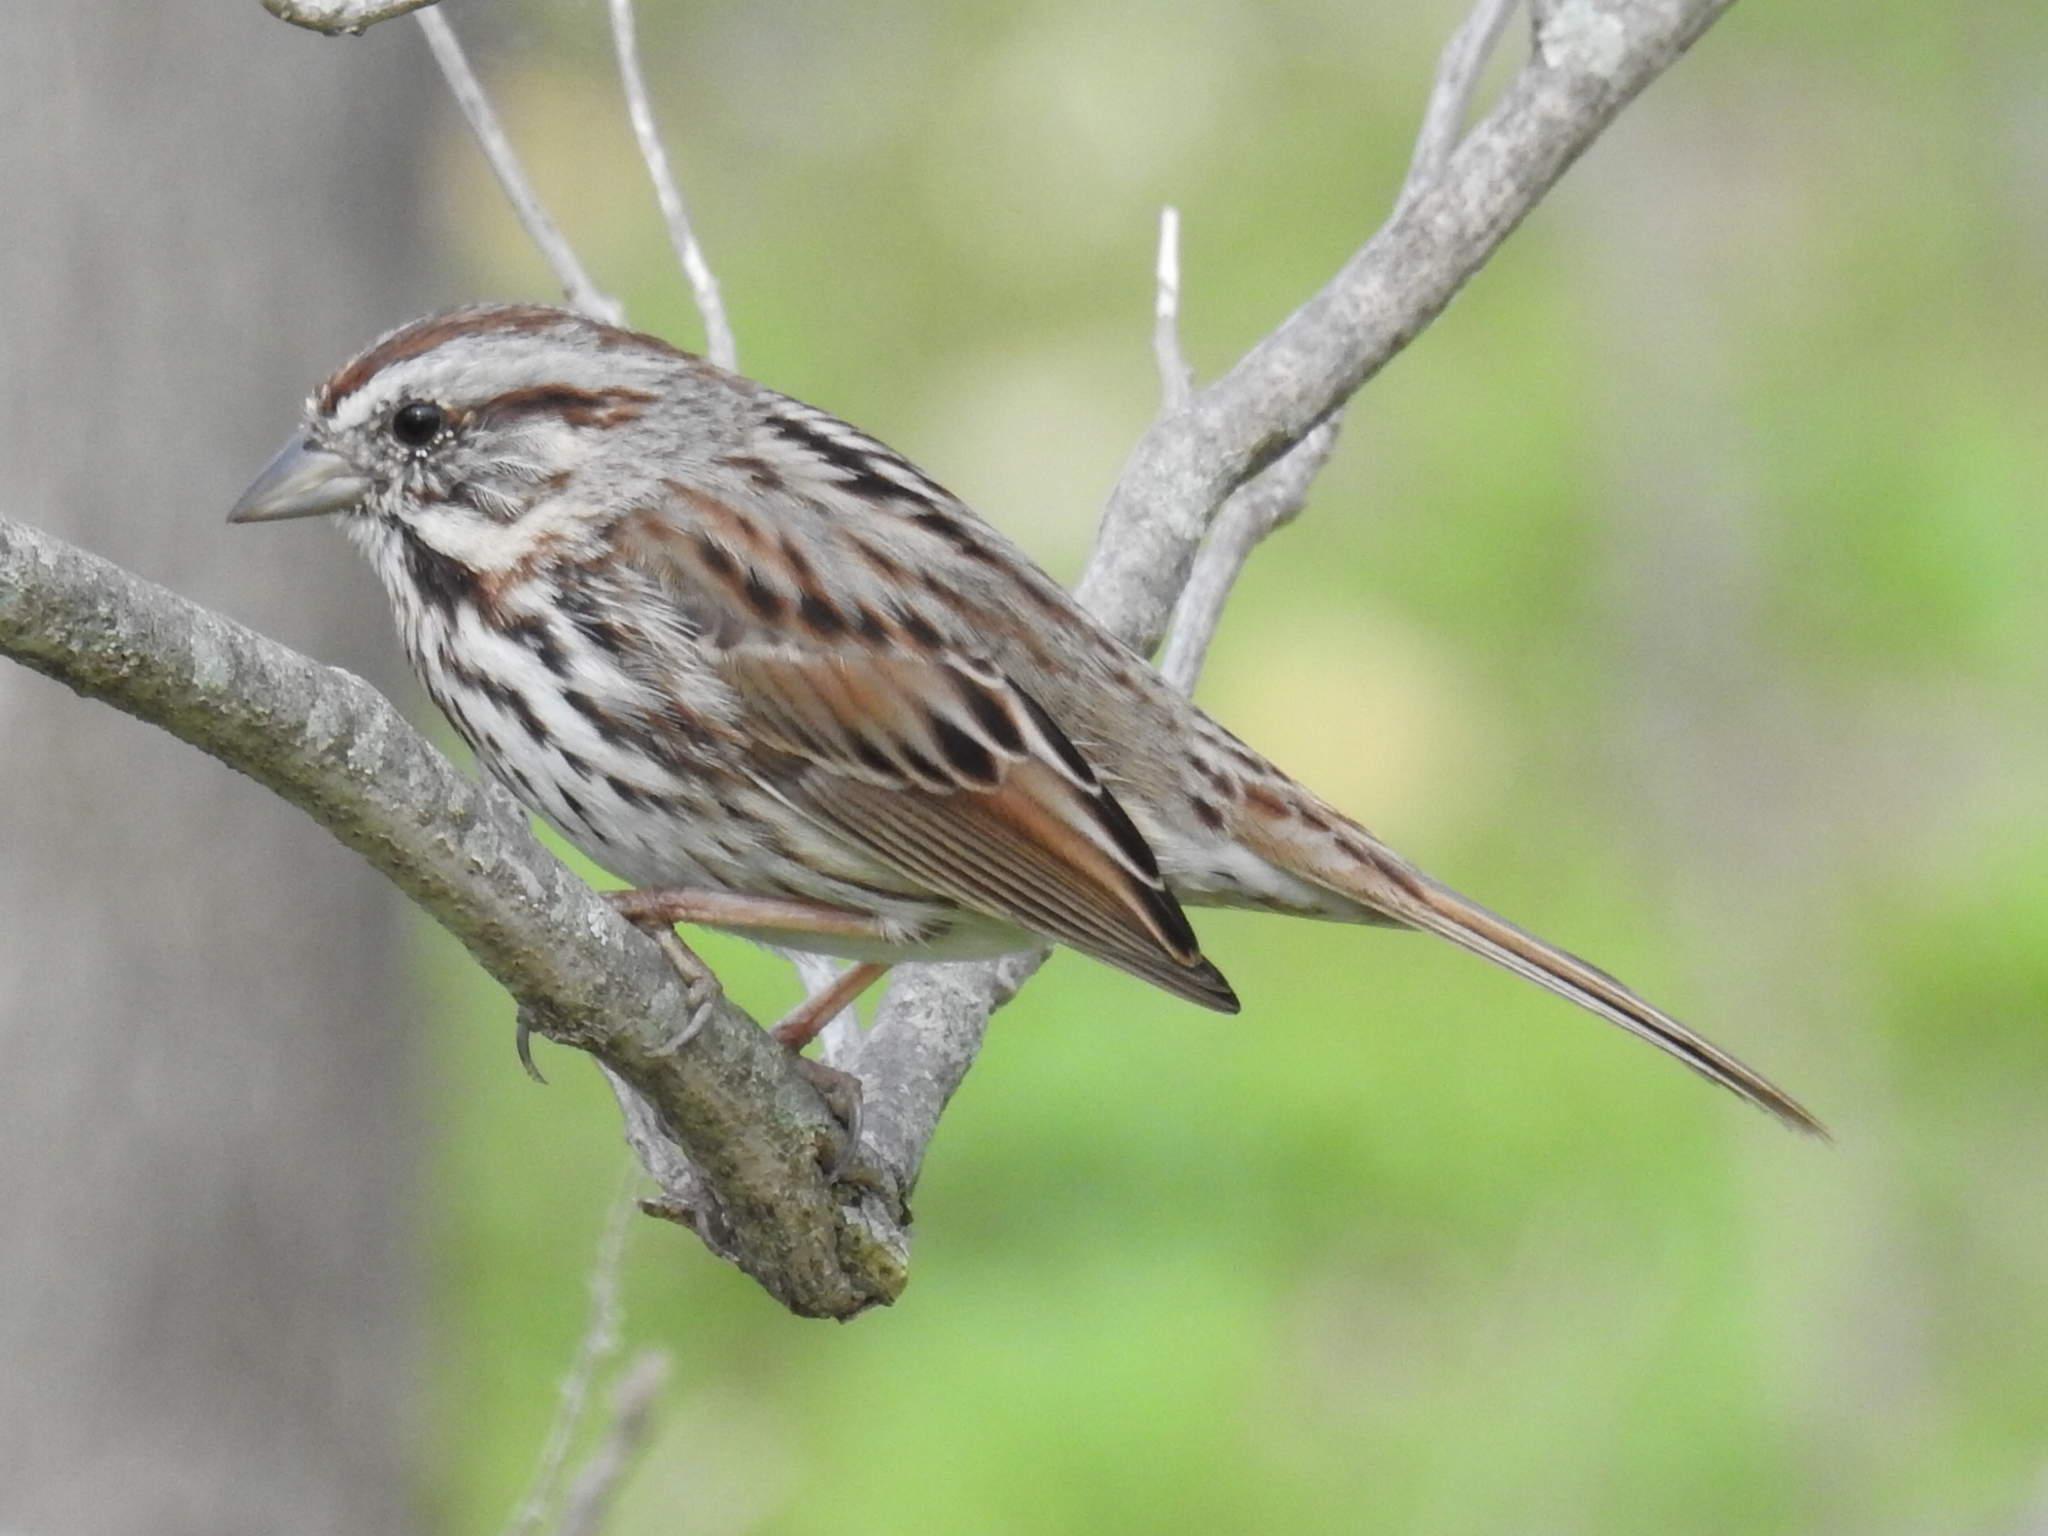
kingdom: Animalia
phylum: Chordata
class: Aves
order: Passeriformes
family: Passerellidae
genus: Melospiza
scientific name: Melospiza melodia
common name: Song sparrow
